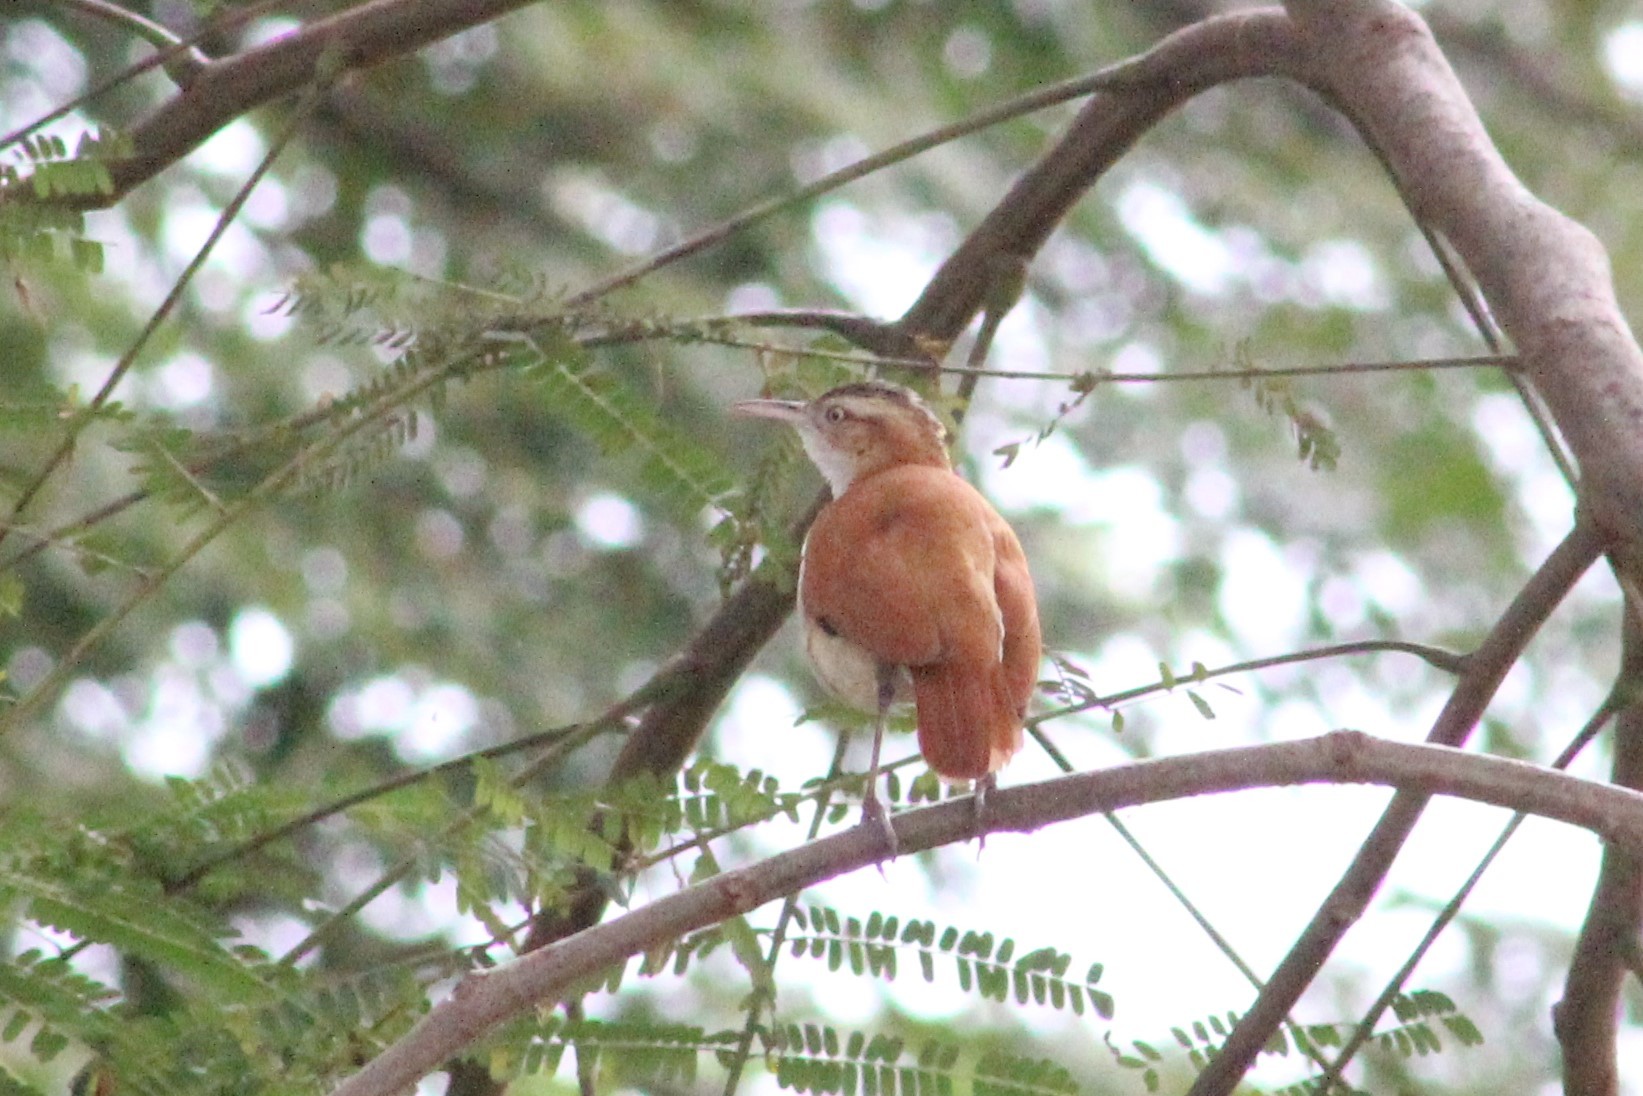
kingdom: Animalia
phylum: Chordata
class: Aves
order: Passeriformes
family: Furnariidae
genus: Furnarius
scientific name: Furnarius leucopus
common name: Pale-legged hornero
